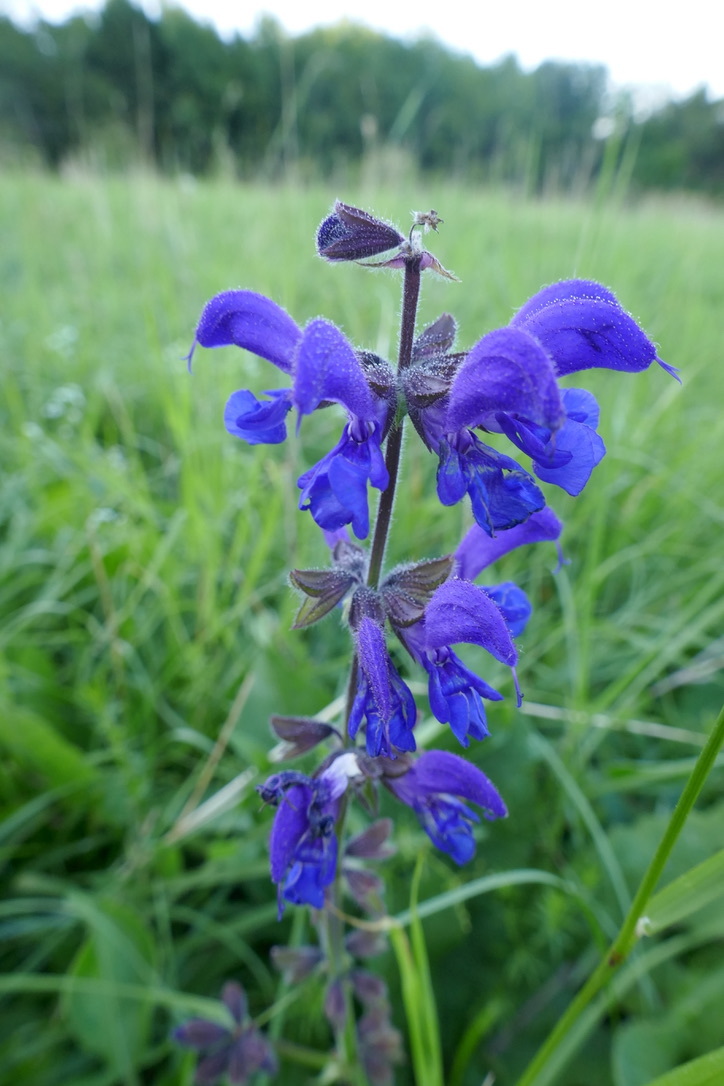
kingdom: Plantae
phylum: Tracheophyta
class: Magnoliopsida
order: Lamiales
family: Lamiaceae
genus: Salvia
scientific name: Salvia pratensis
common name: Meadow sage
